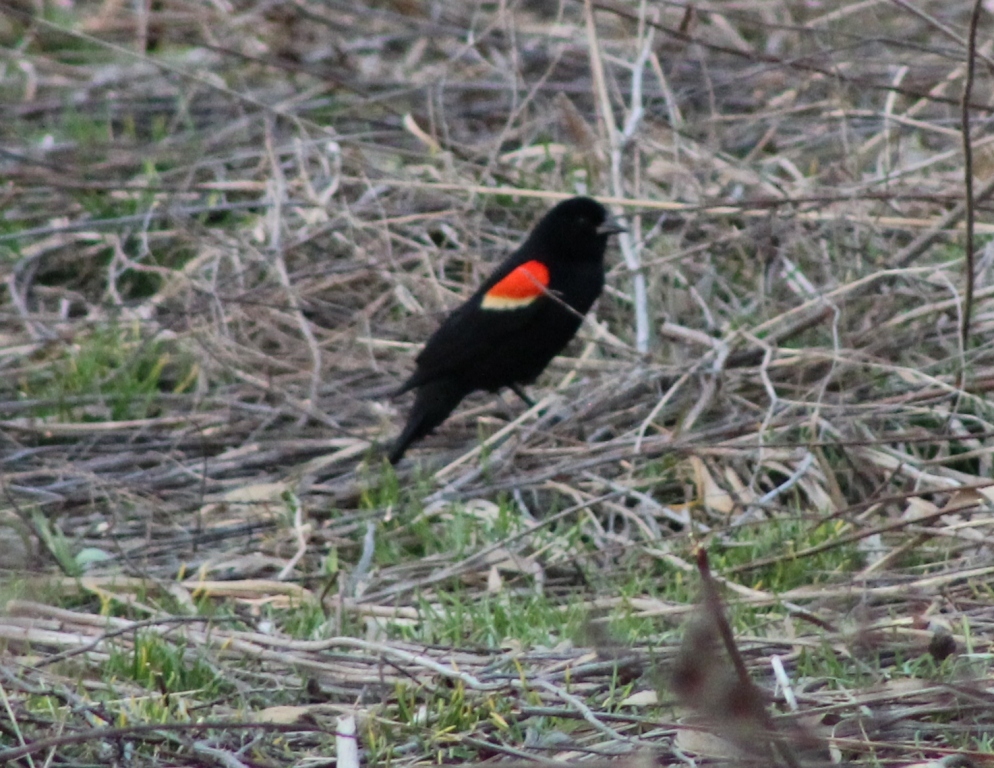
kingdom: Animalia
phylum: Chordata
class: Aves
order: Passeriformes
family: Icteridae
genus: Agelaius
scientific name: Agelaius phoeniceus
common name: Red-winged blackbird
